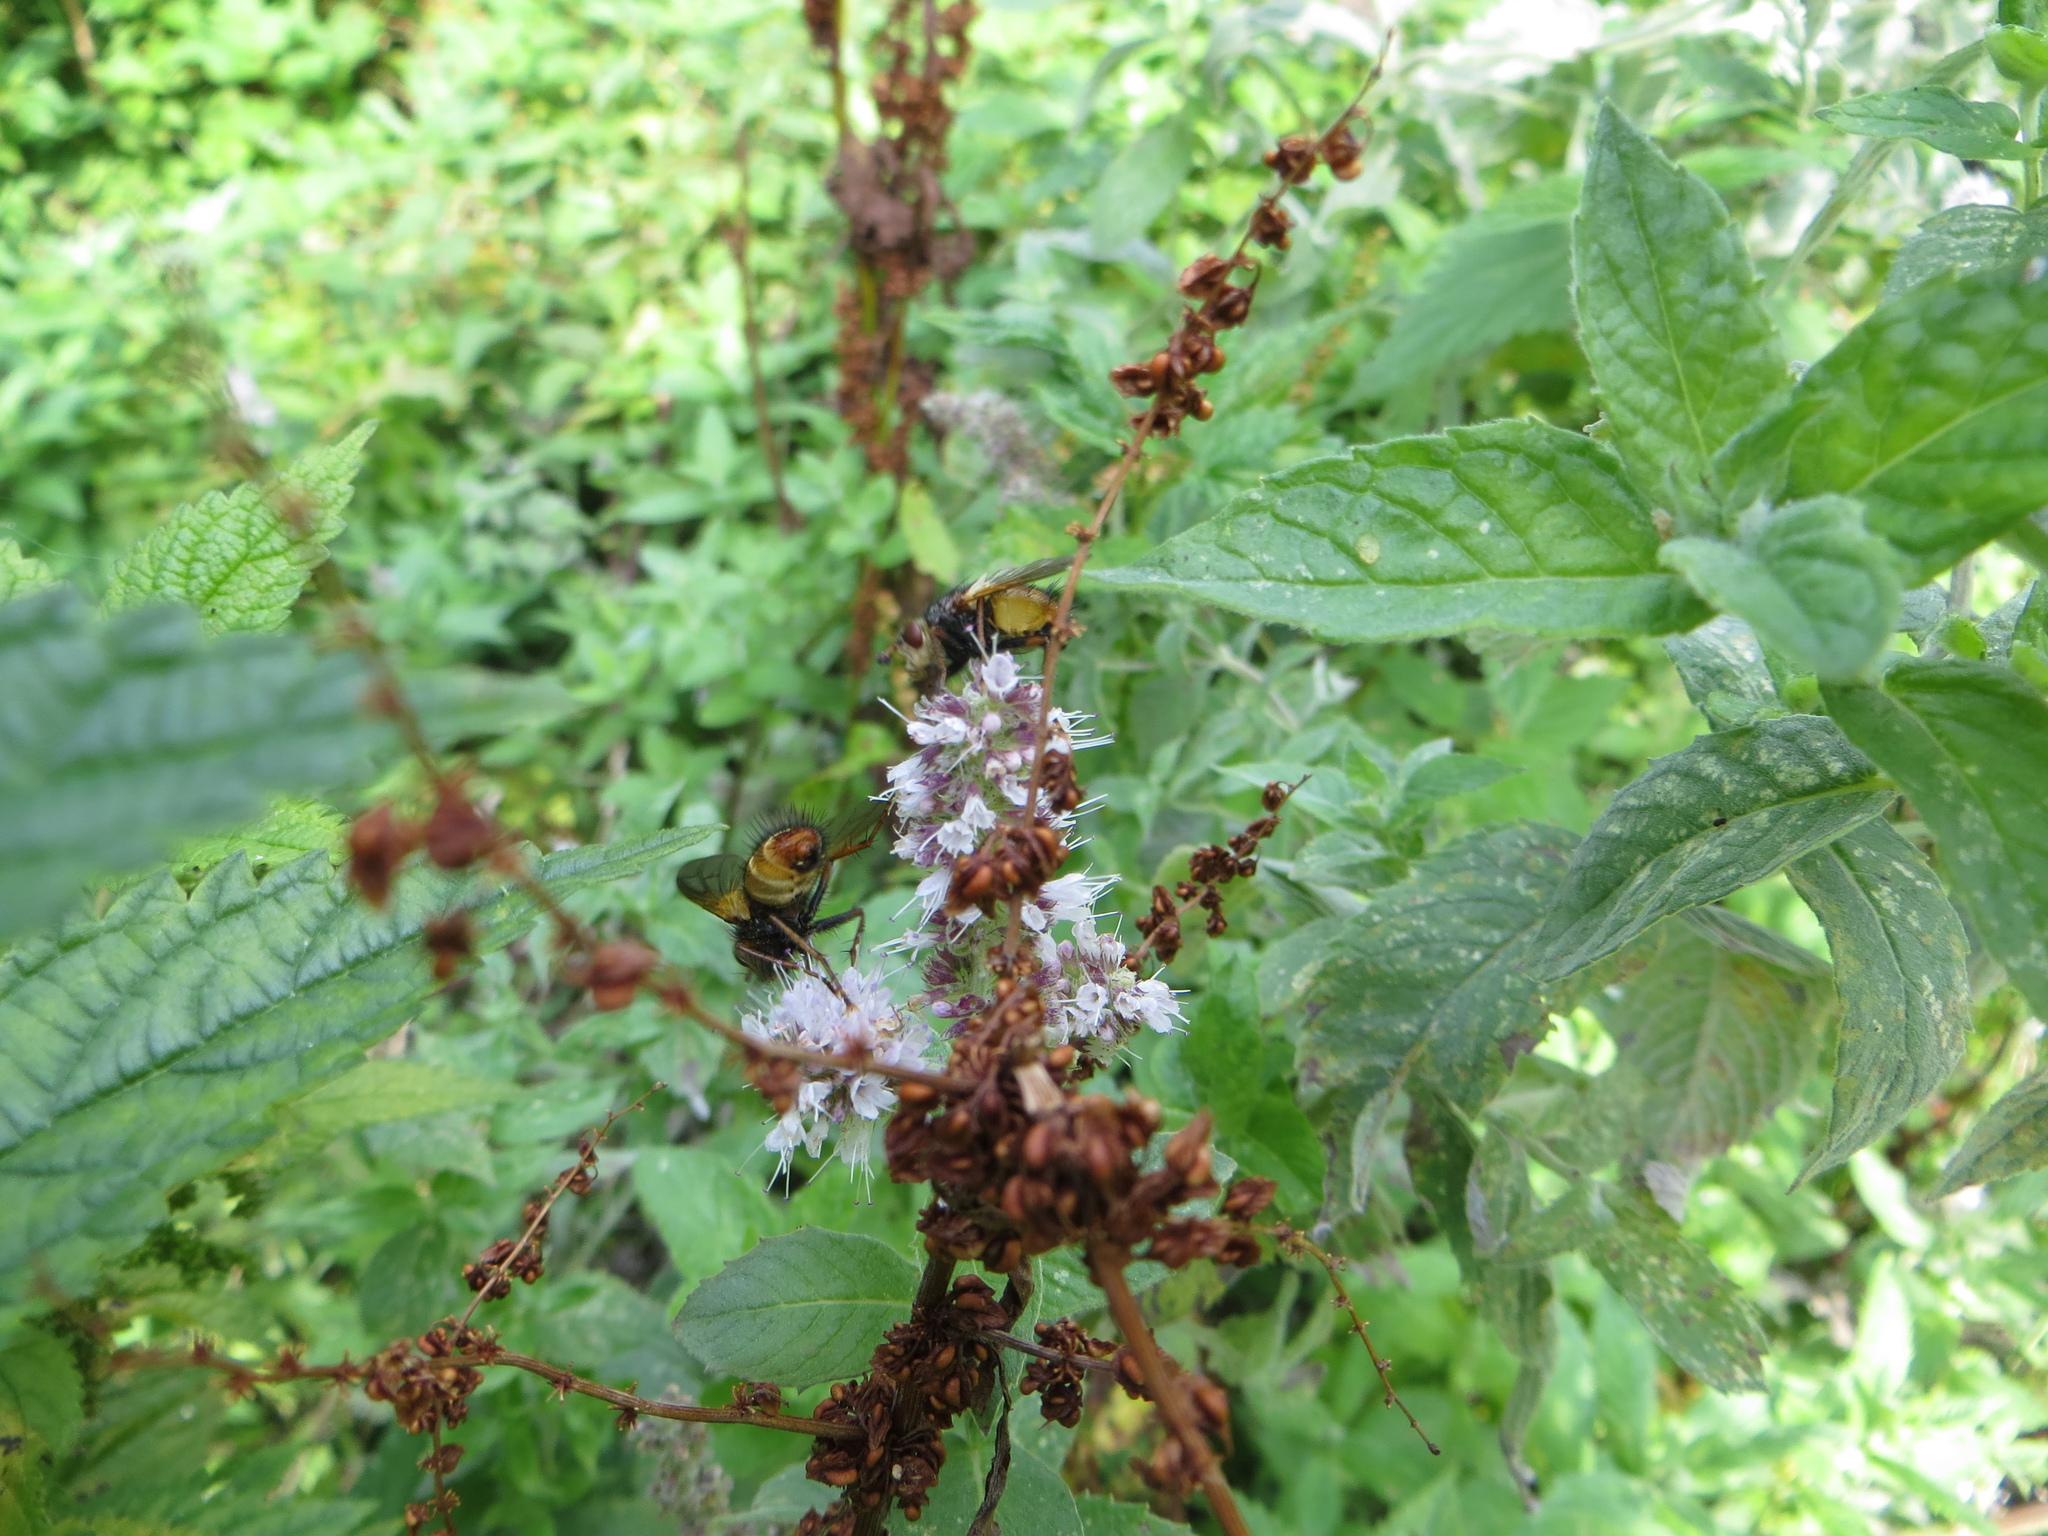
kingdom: Animalia
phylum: Arthropoda
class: Insecta
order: Diptera
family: Tachinidae
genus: Tachina
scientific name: Tachina fera
